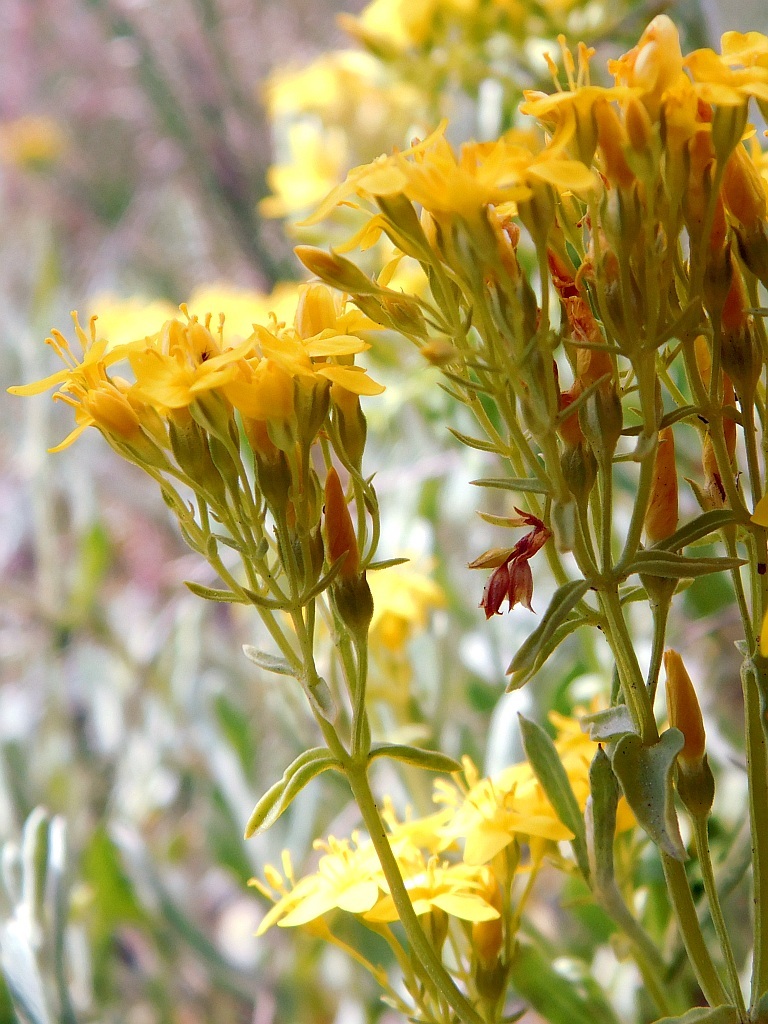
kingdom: Plantae
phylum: Tracheophyta
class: Magnoliopsida
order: Gentianales
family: Gentianaceae
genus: Sebaea
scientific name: Sebaea aurea
